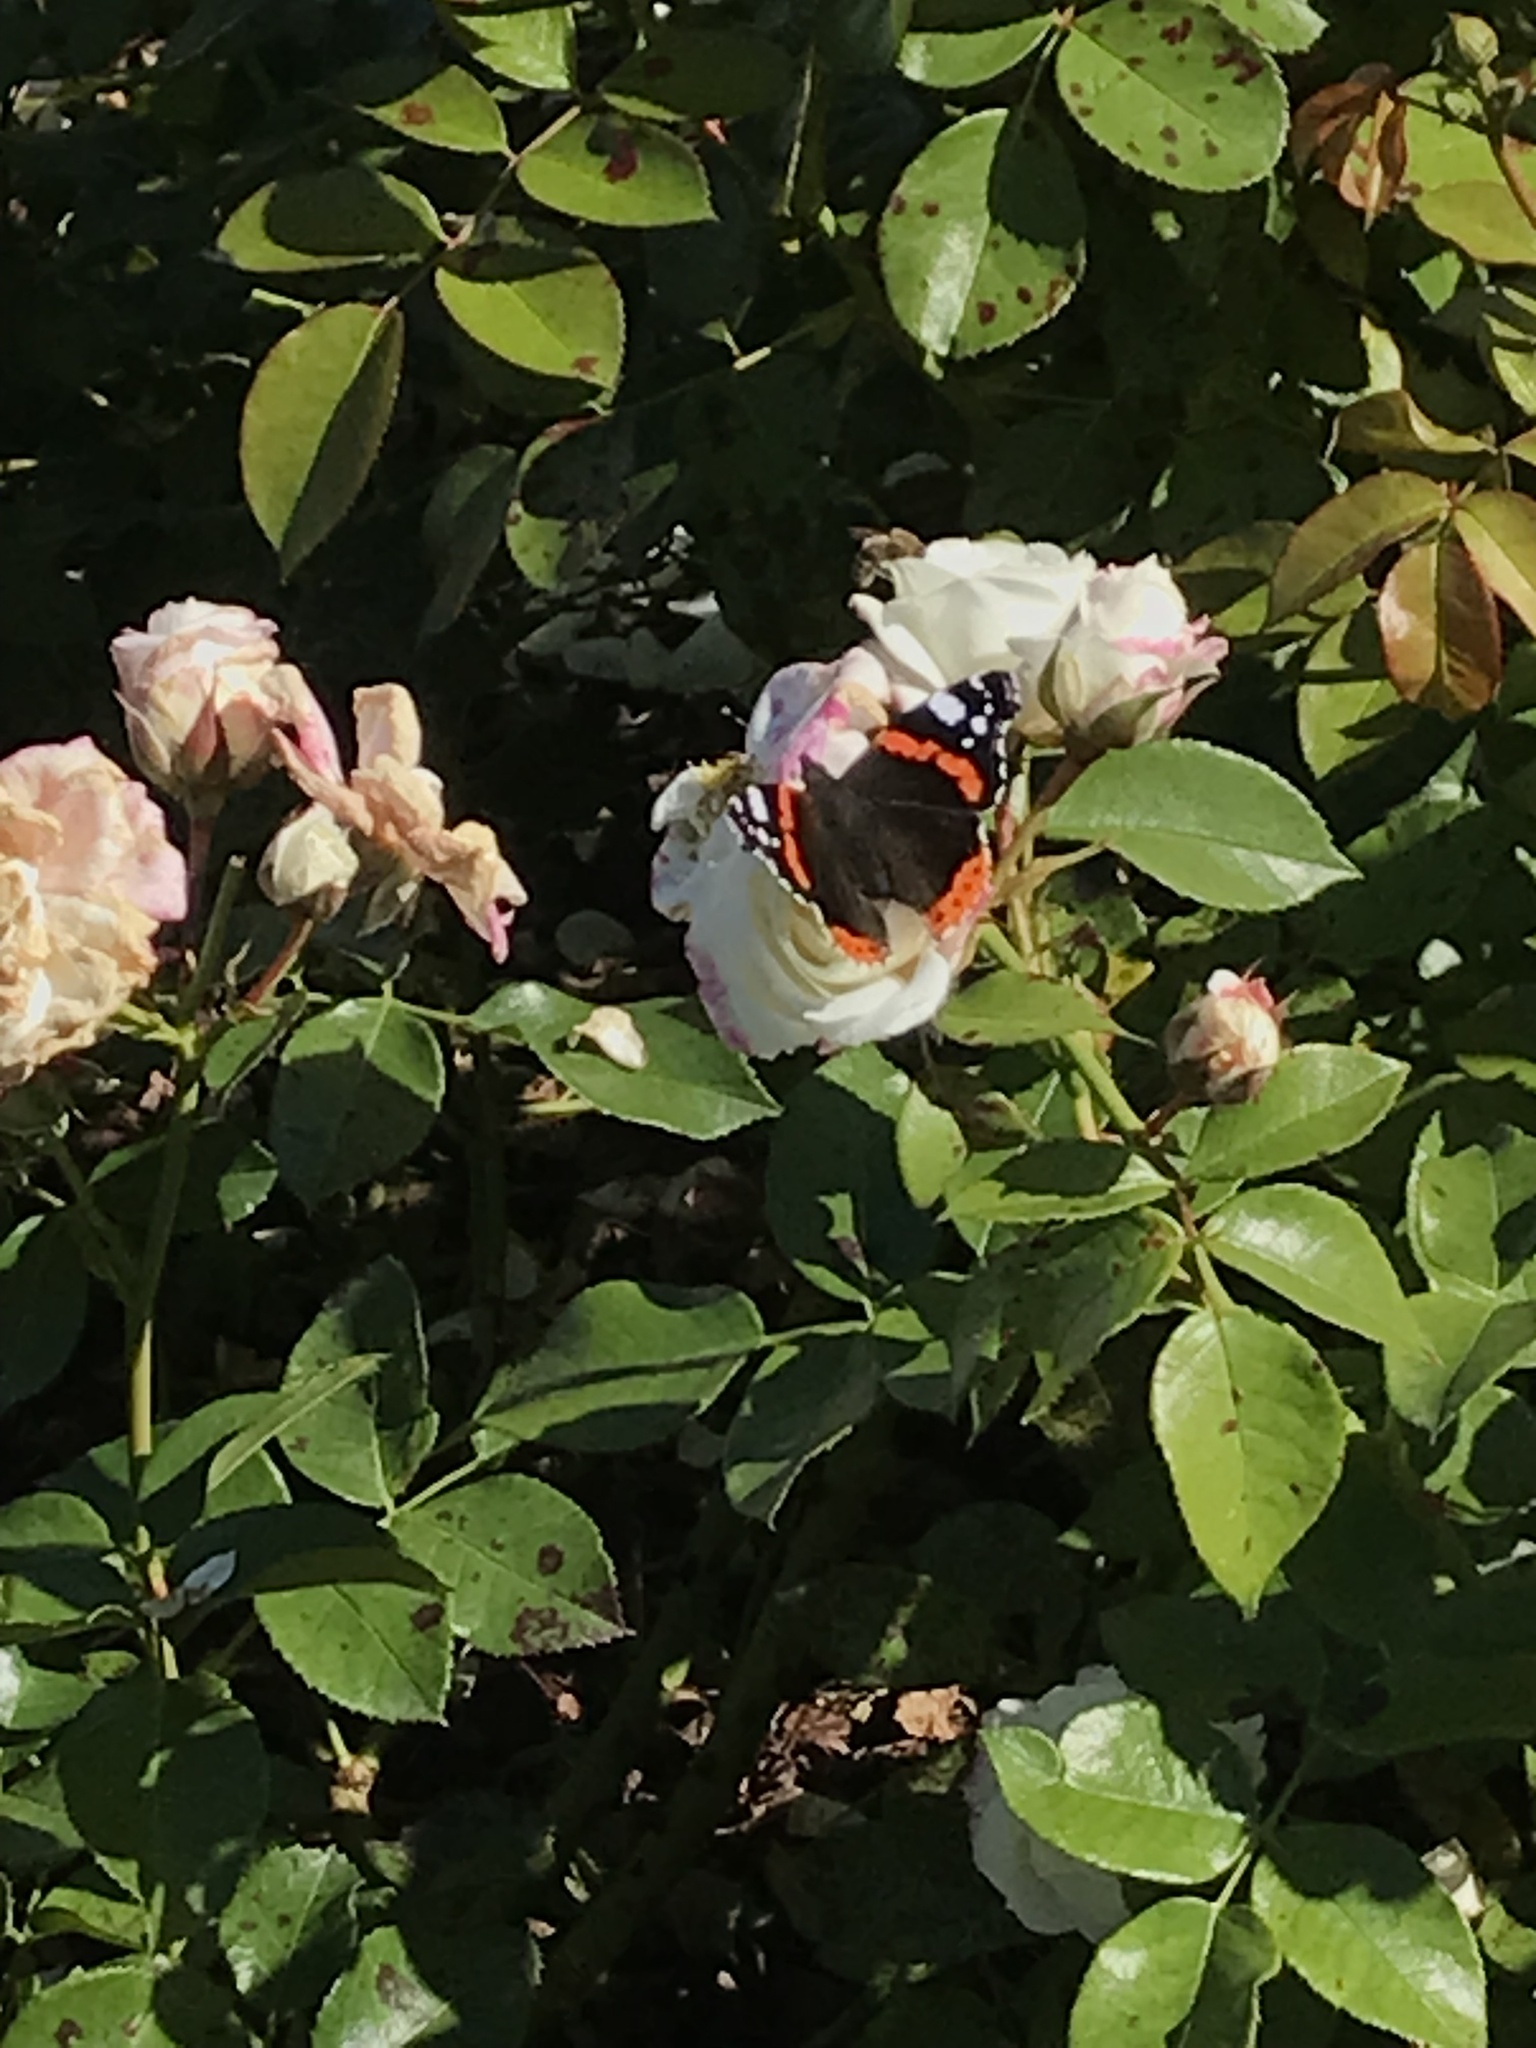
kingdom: Animalia
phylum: Arthropoda
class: Insecta
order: Lepidoptera
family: Nymphalidae
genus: Vanessa
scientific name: Vanessa atalanta
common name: Red admiral
